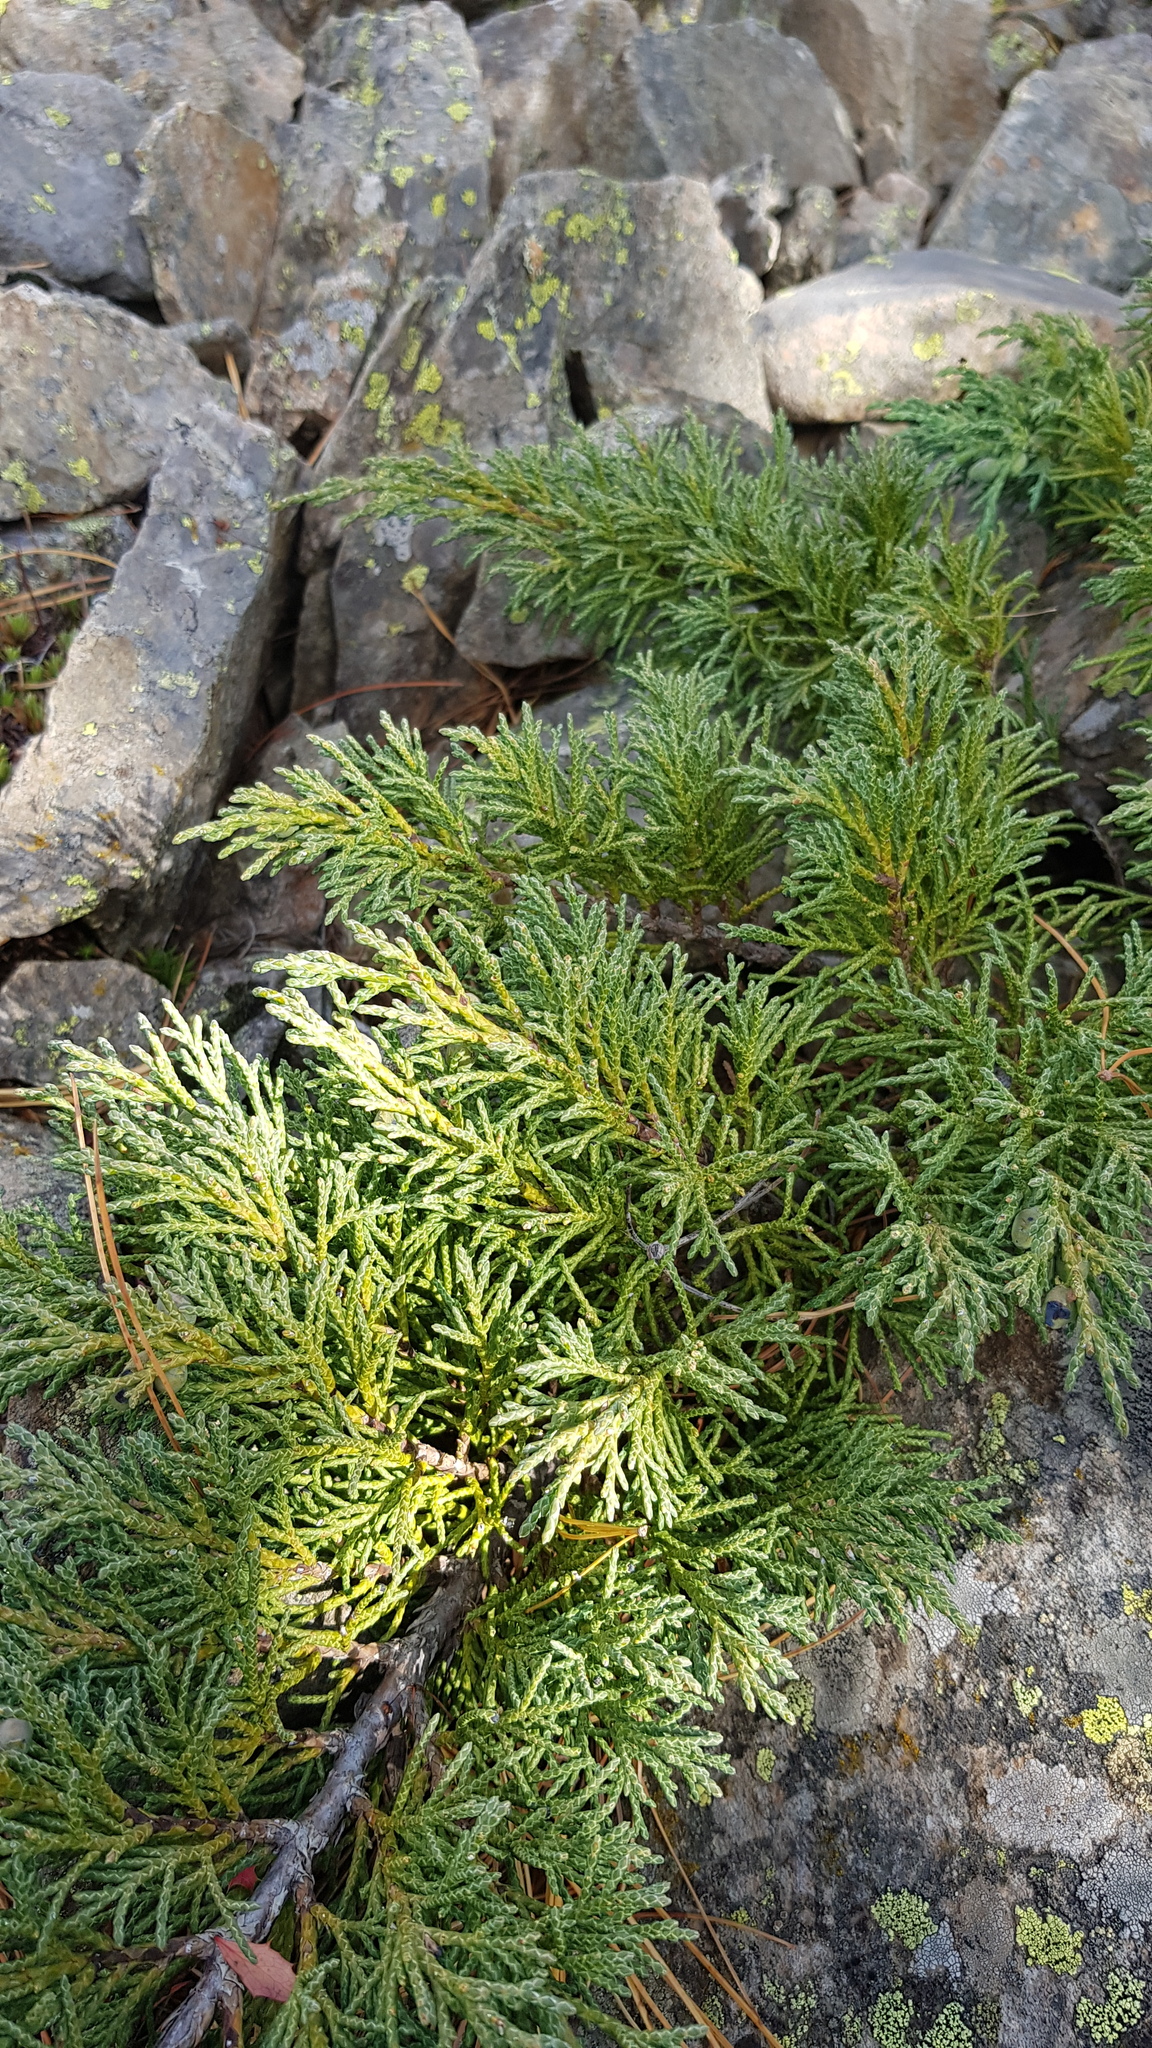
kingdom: Plantae
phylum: Tracheophyta
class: Pinopsida
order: Pinales
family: Cupressaceae
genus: Juniperus
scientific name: Juniperus pseudosabina
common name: Turkestan juniper
